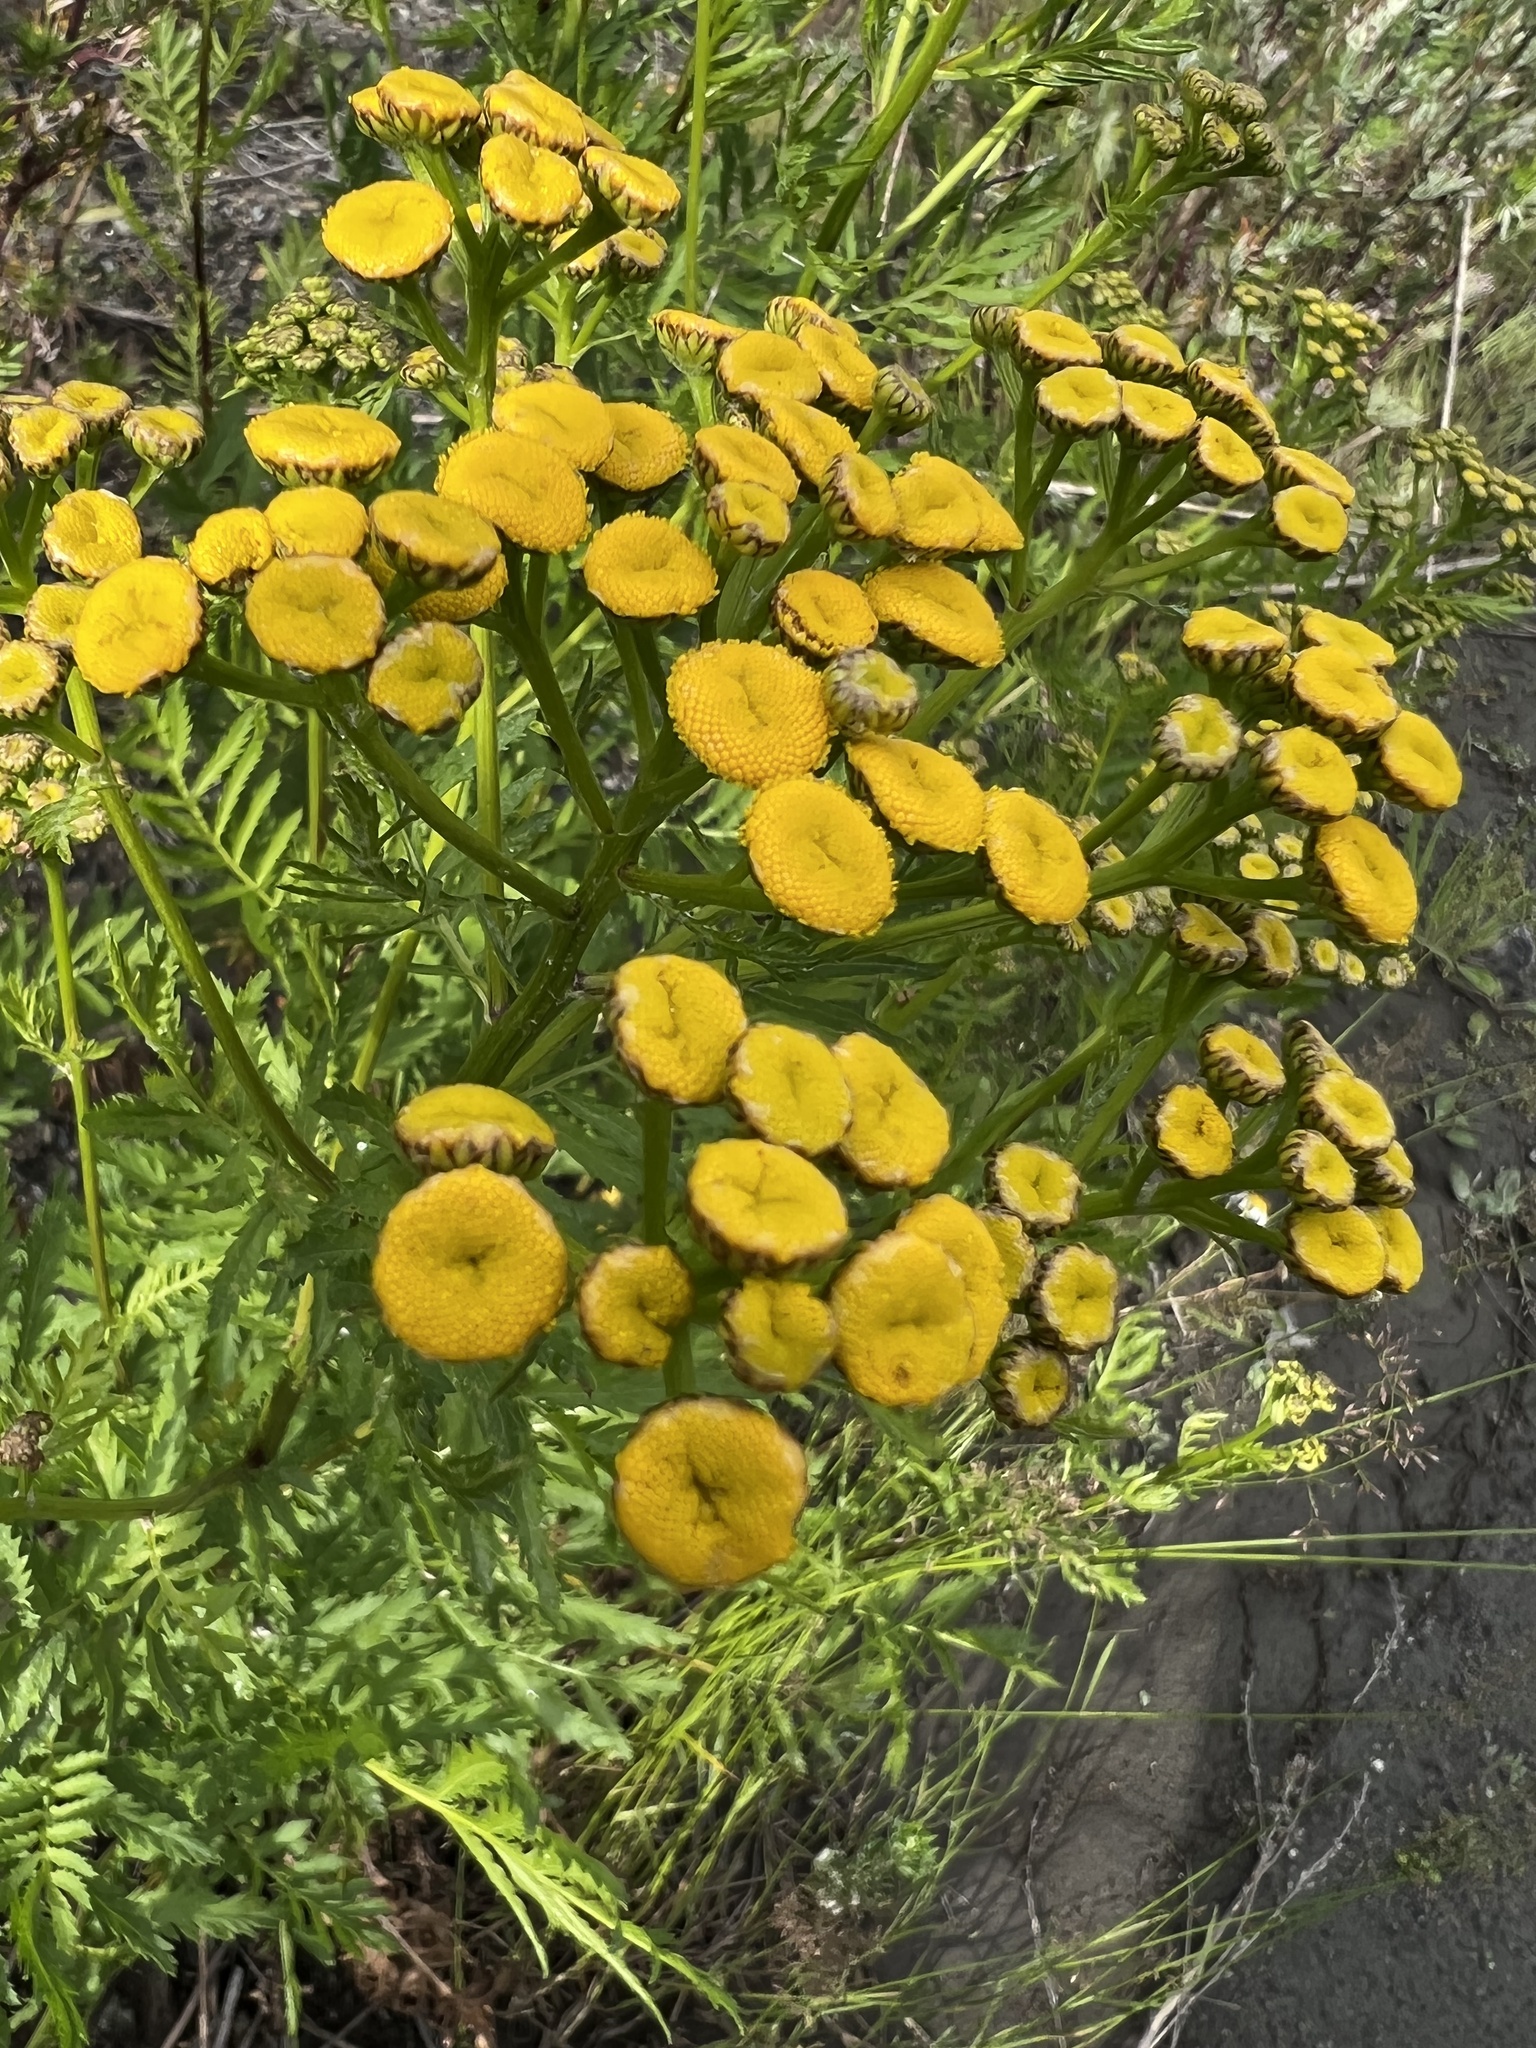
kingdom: Plantae
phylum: Tracheophyta
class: Magnoliopsida
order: Asterales
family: Asteraceae
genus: Tanacetum
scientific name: Tanacetum vulgare
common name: Common tansy
